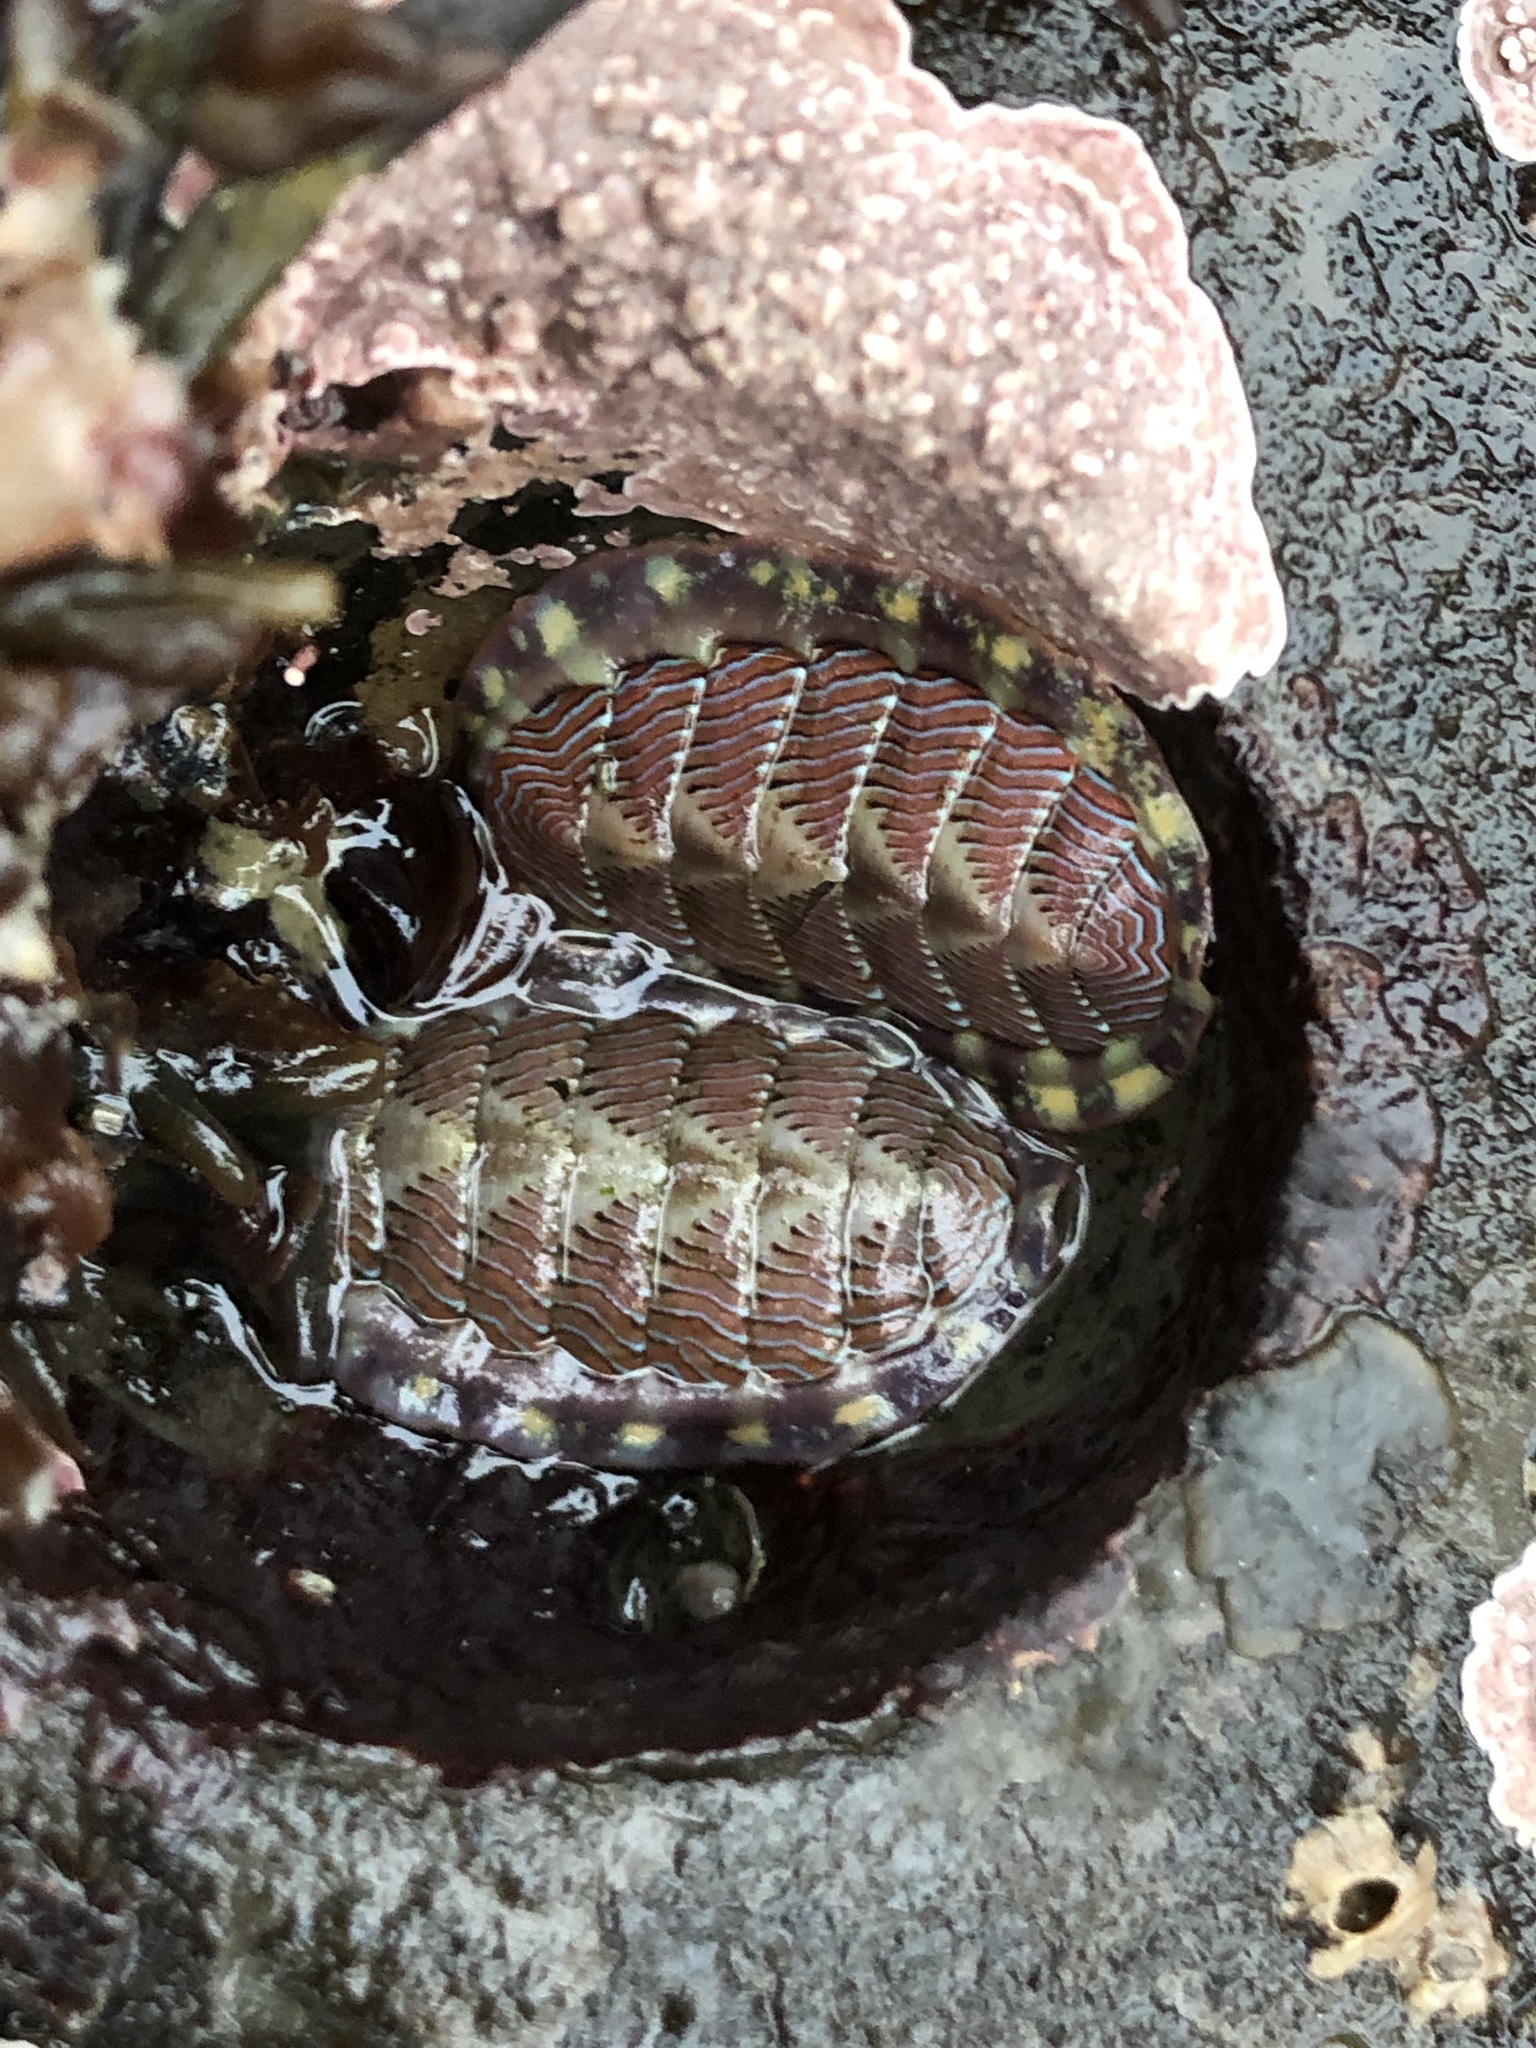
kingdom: Animalia
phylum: Mollusca
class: Polyplacophora
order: Chitonida
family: Tonicellidae
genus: Tonicella
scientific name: Tonicella lineata
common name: Lined chiton
